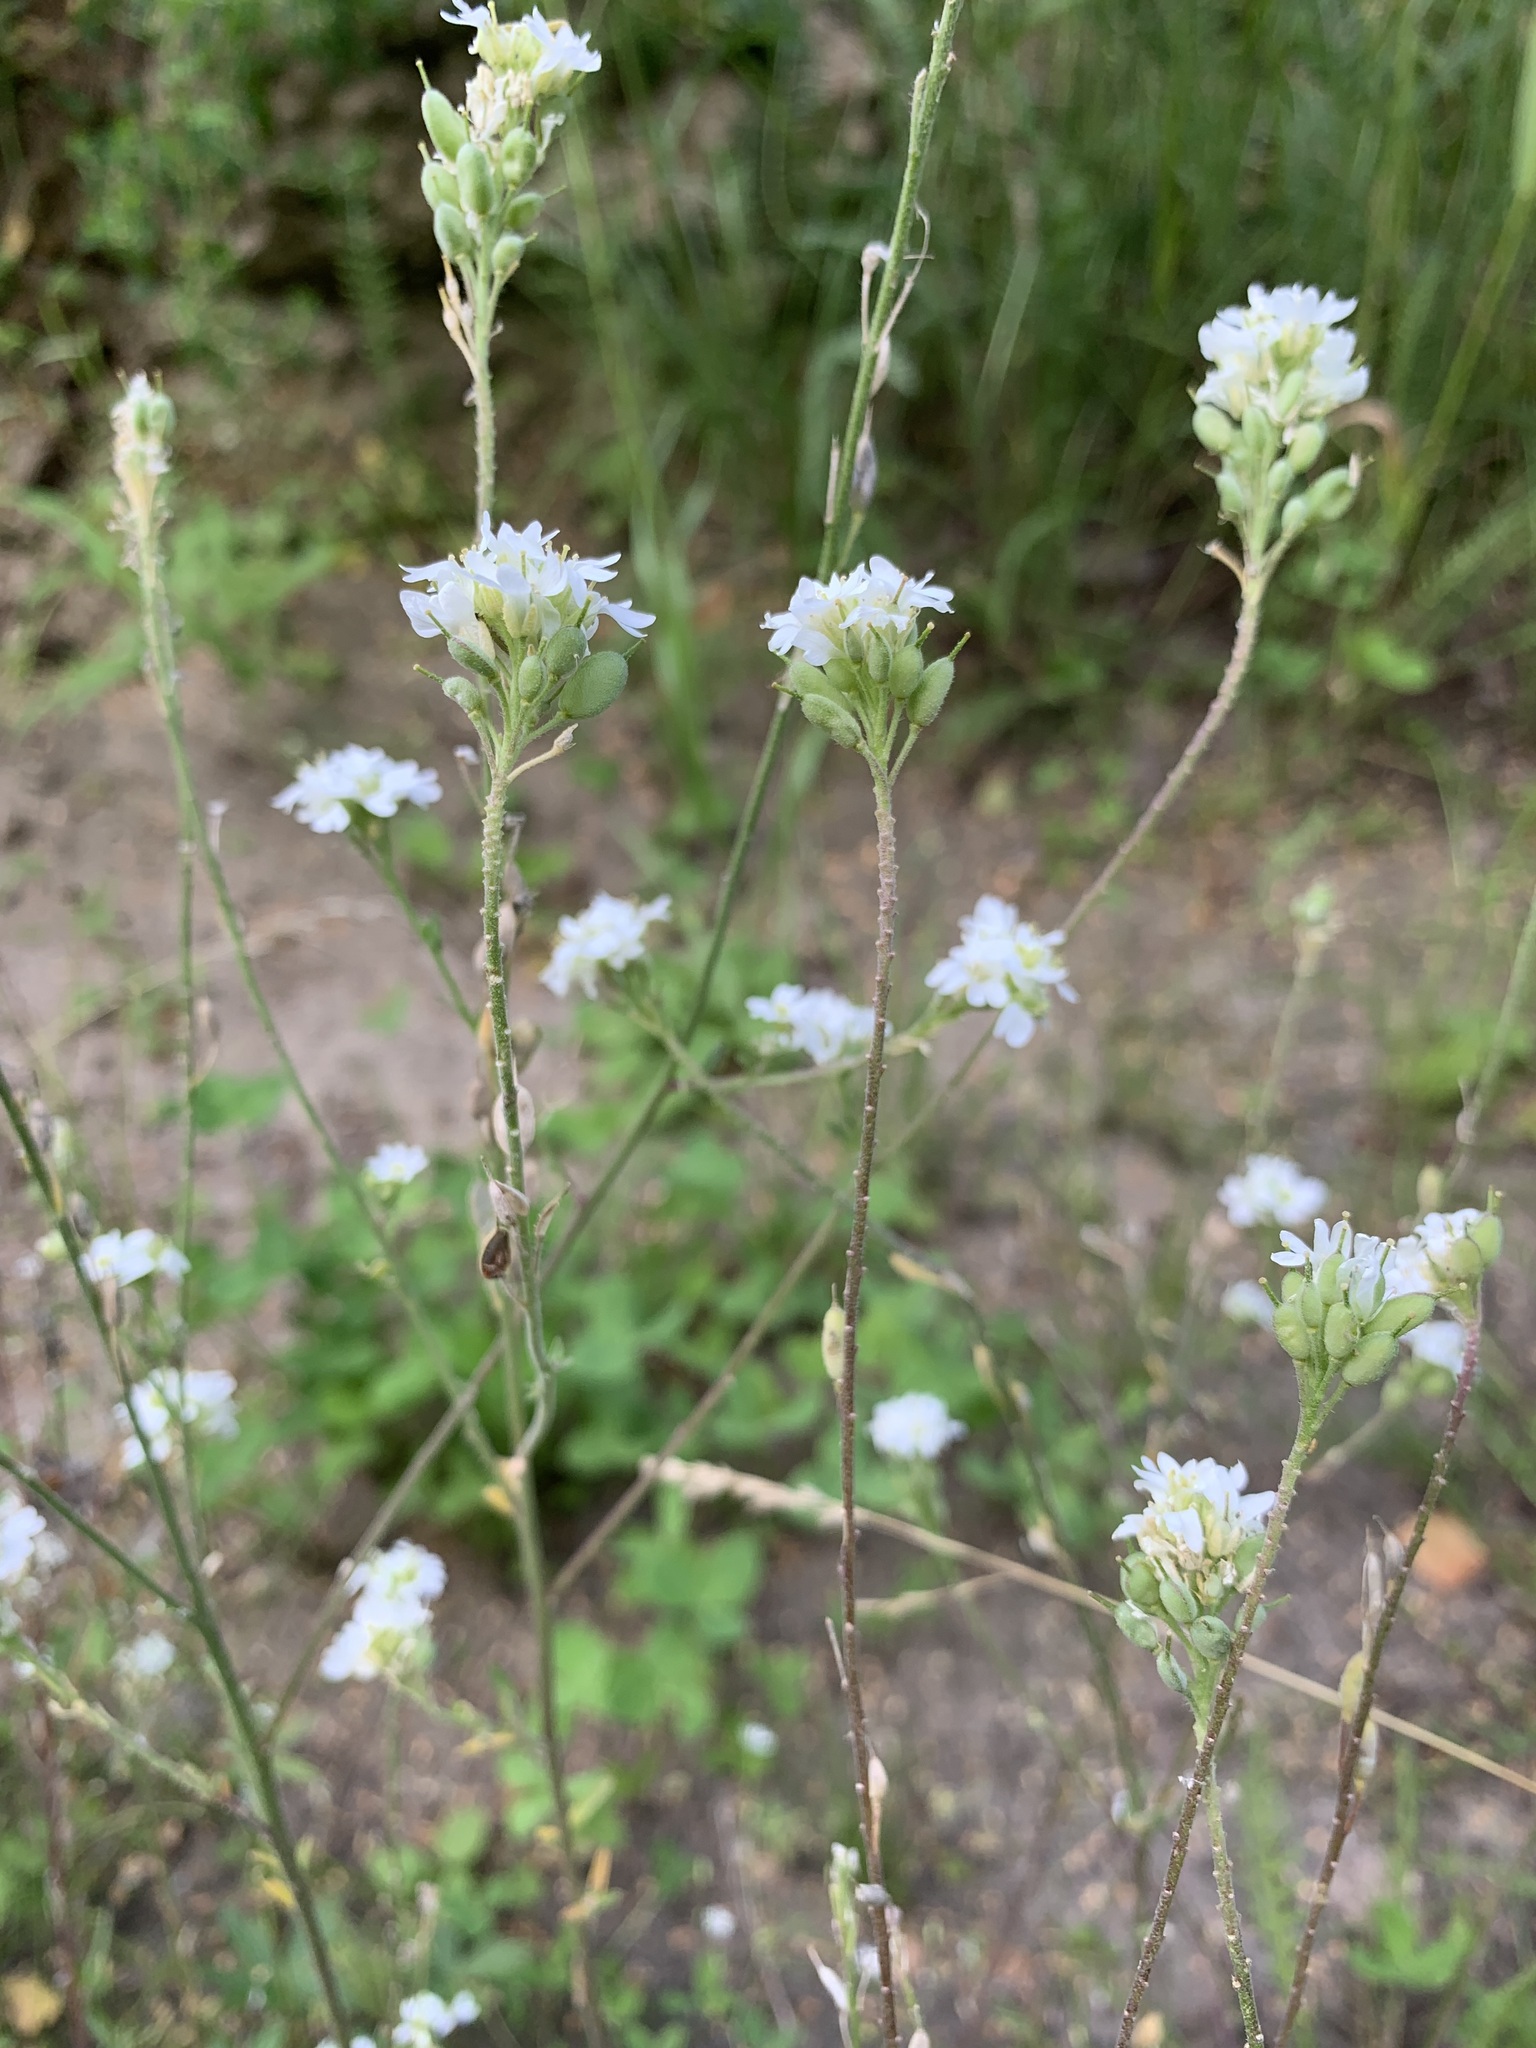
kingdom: Plantae
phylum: Tracheophyta
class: Magnoliopsida
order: Brassicales
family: Brassicaceae
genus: Berteroa
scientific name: Berteroa incana
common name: Hoary alison
